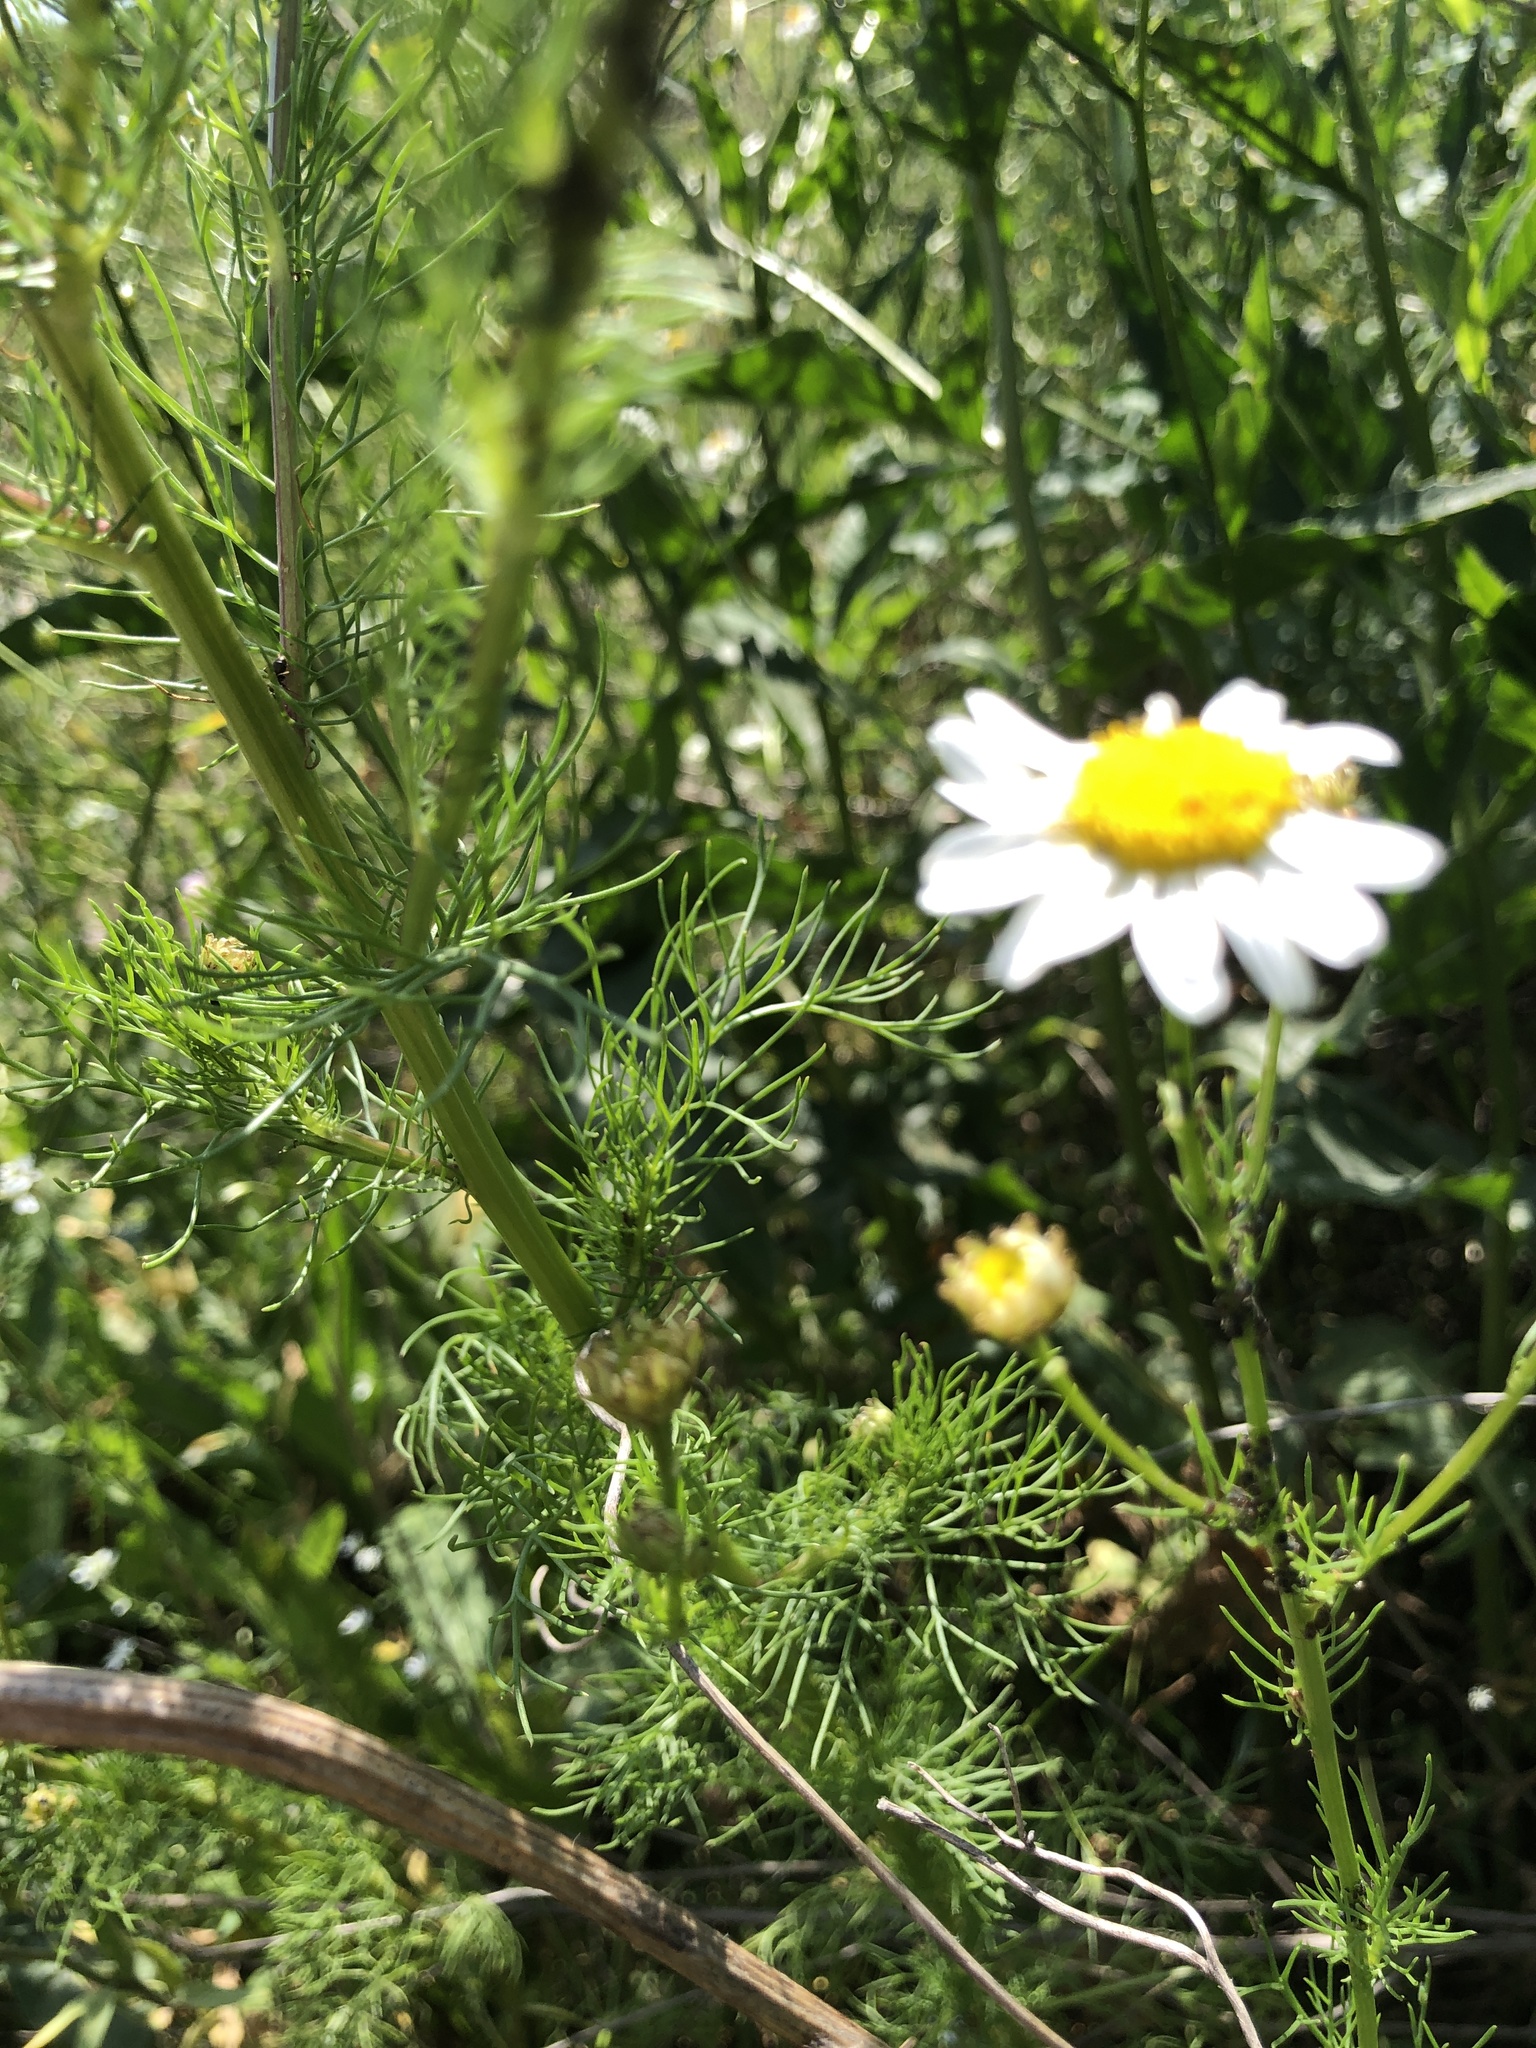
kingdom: Plantae
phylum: Tracheophyta
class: Magnoliopsida
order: Asterales
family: Asteraceae
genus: Tripleurospermum
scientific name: Tripleurospermum inodorum
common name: Scentless mayweed
